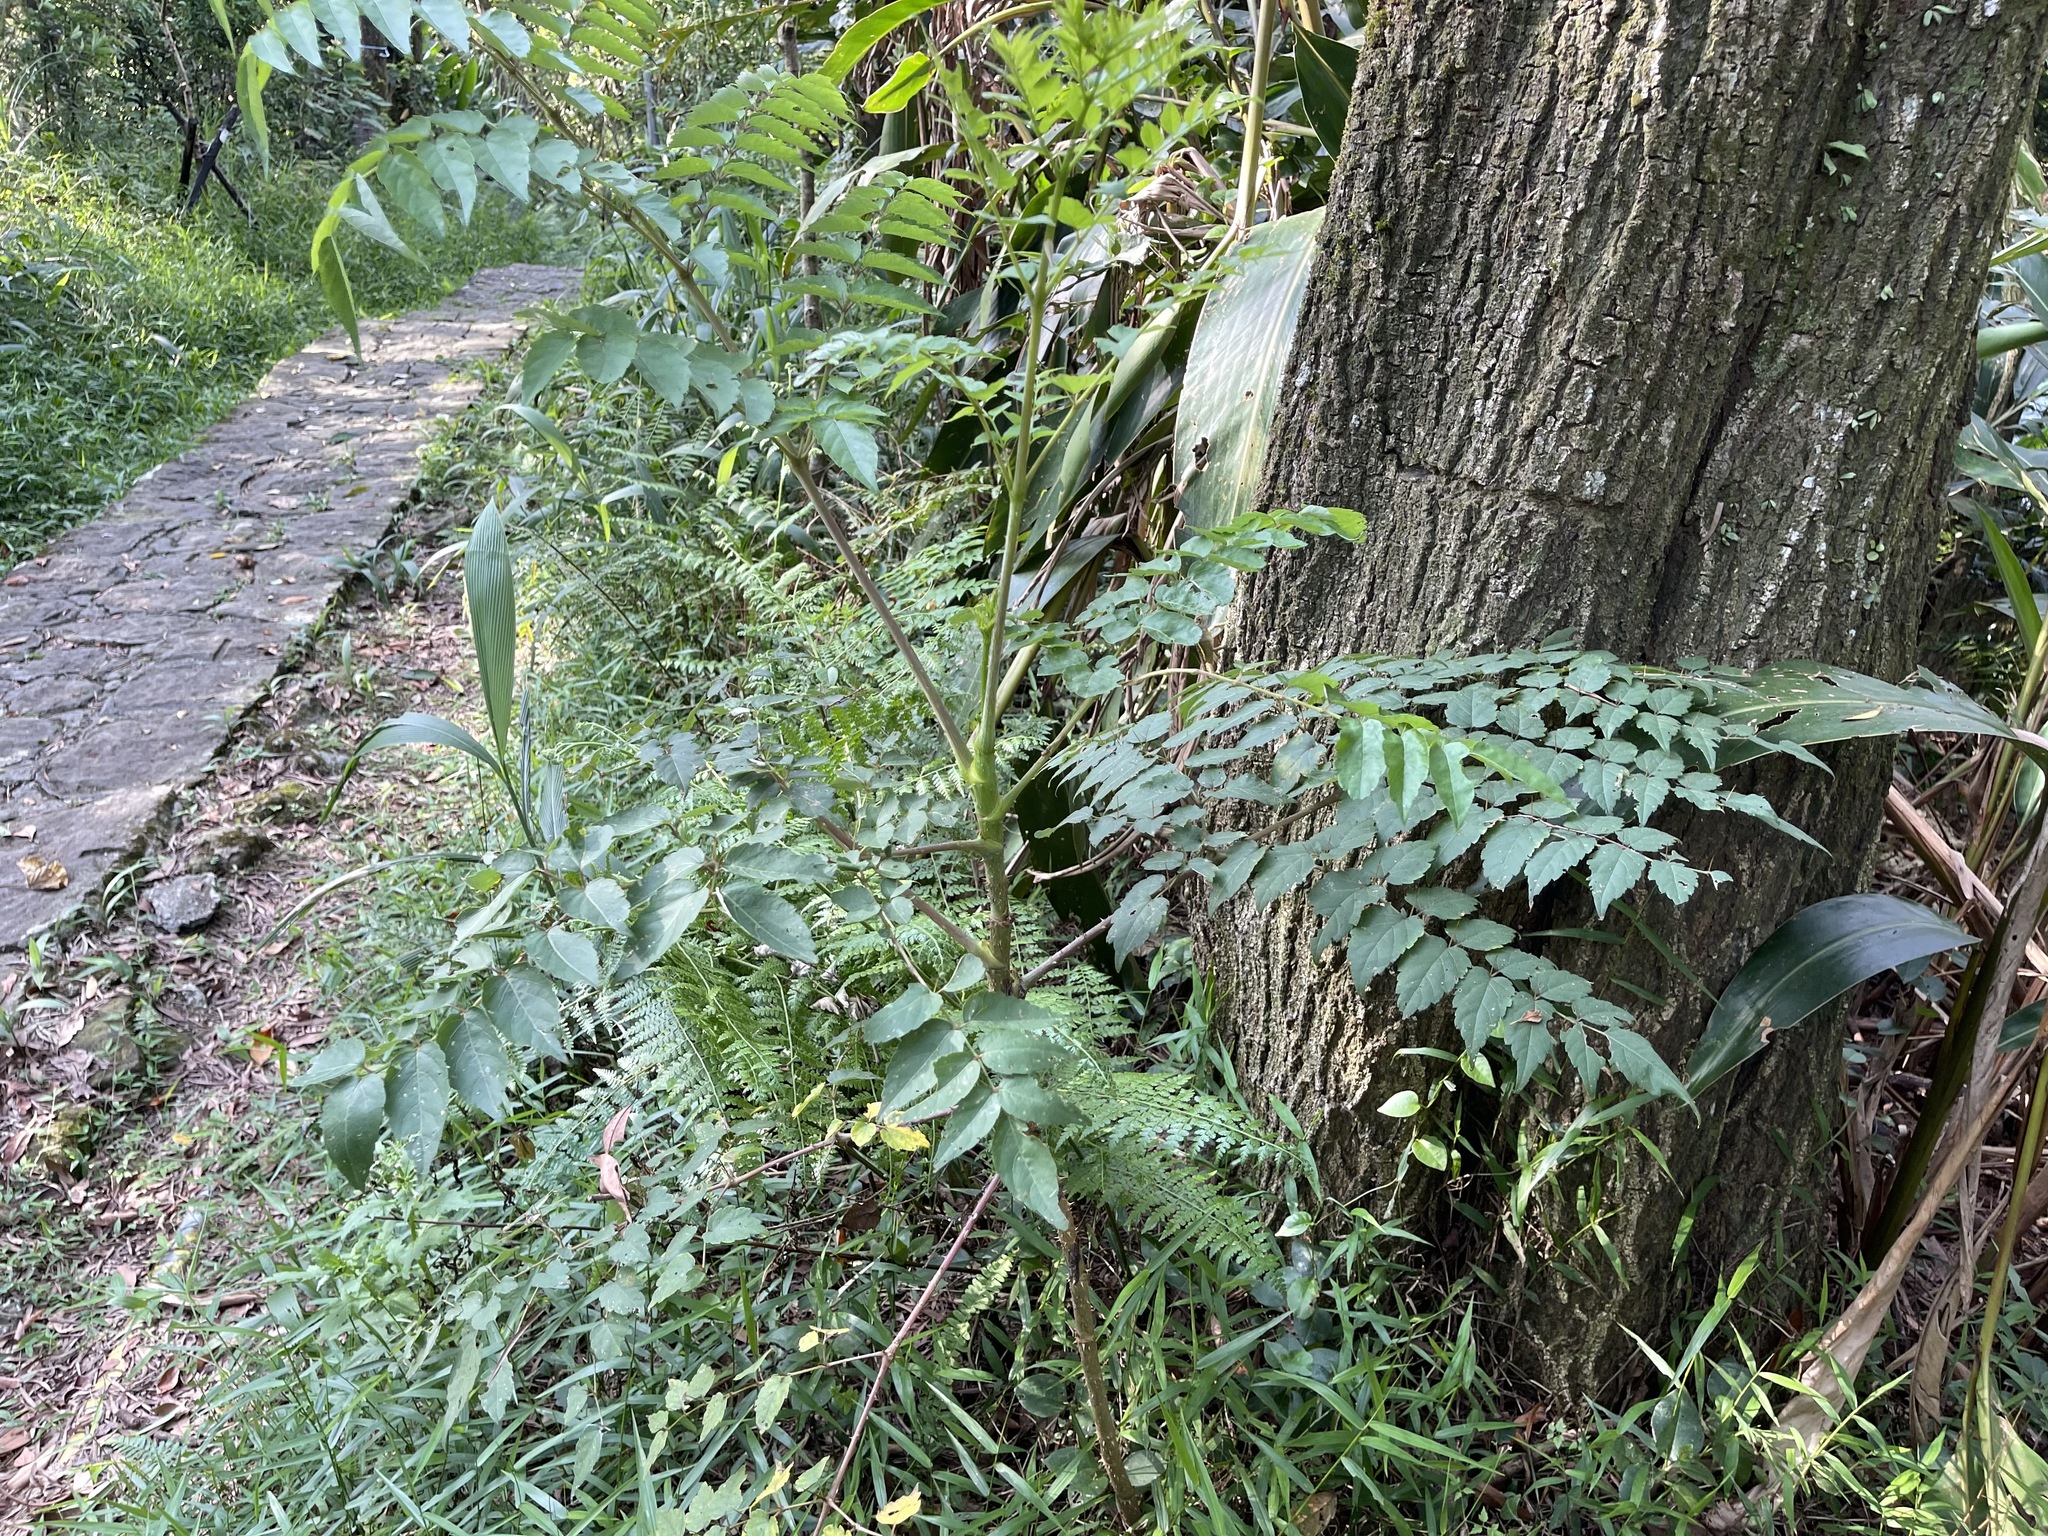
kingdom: Plantae
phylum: Tracheophyta
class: Magnoliopsida
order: Apiales
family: Araliaceae
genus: Aralia
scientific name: Aralia bipinnata
